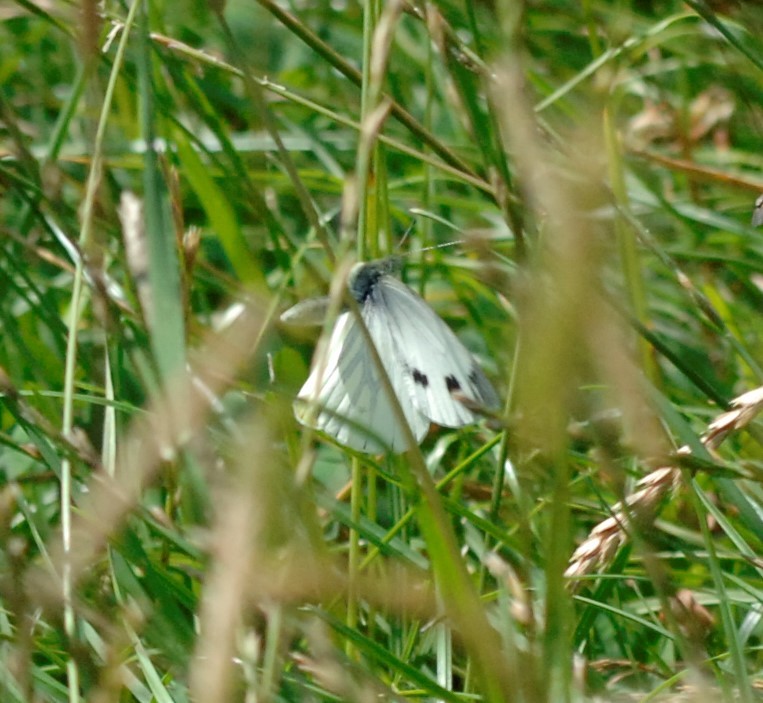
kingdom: Animalia
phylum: Arthropoda
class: Insecta
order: Lepidoptera
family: Pieridae
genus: Pieris
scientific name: Pieris rapae
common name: Small white
